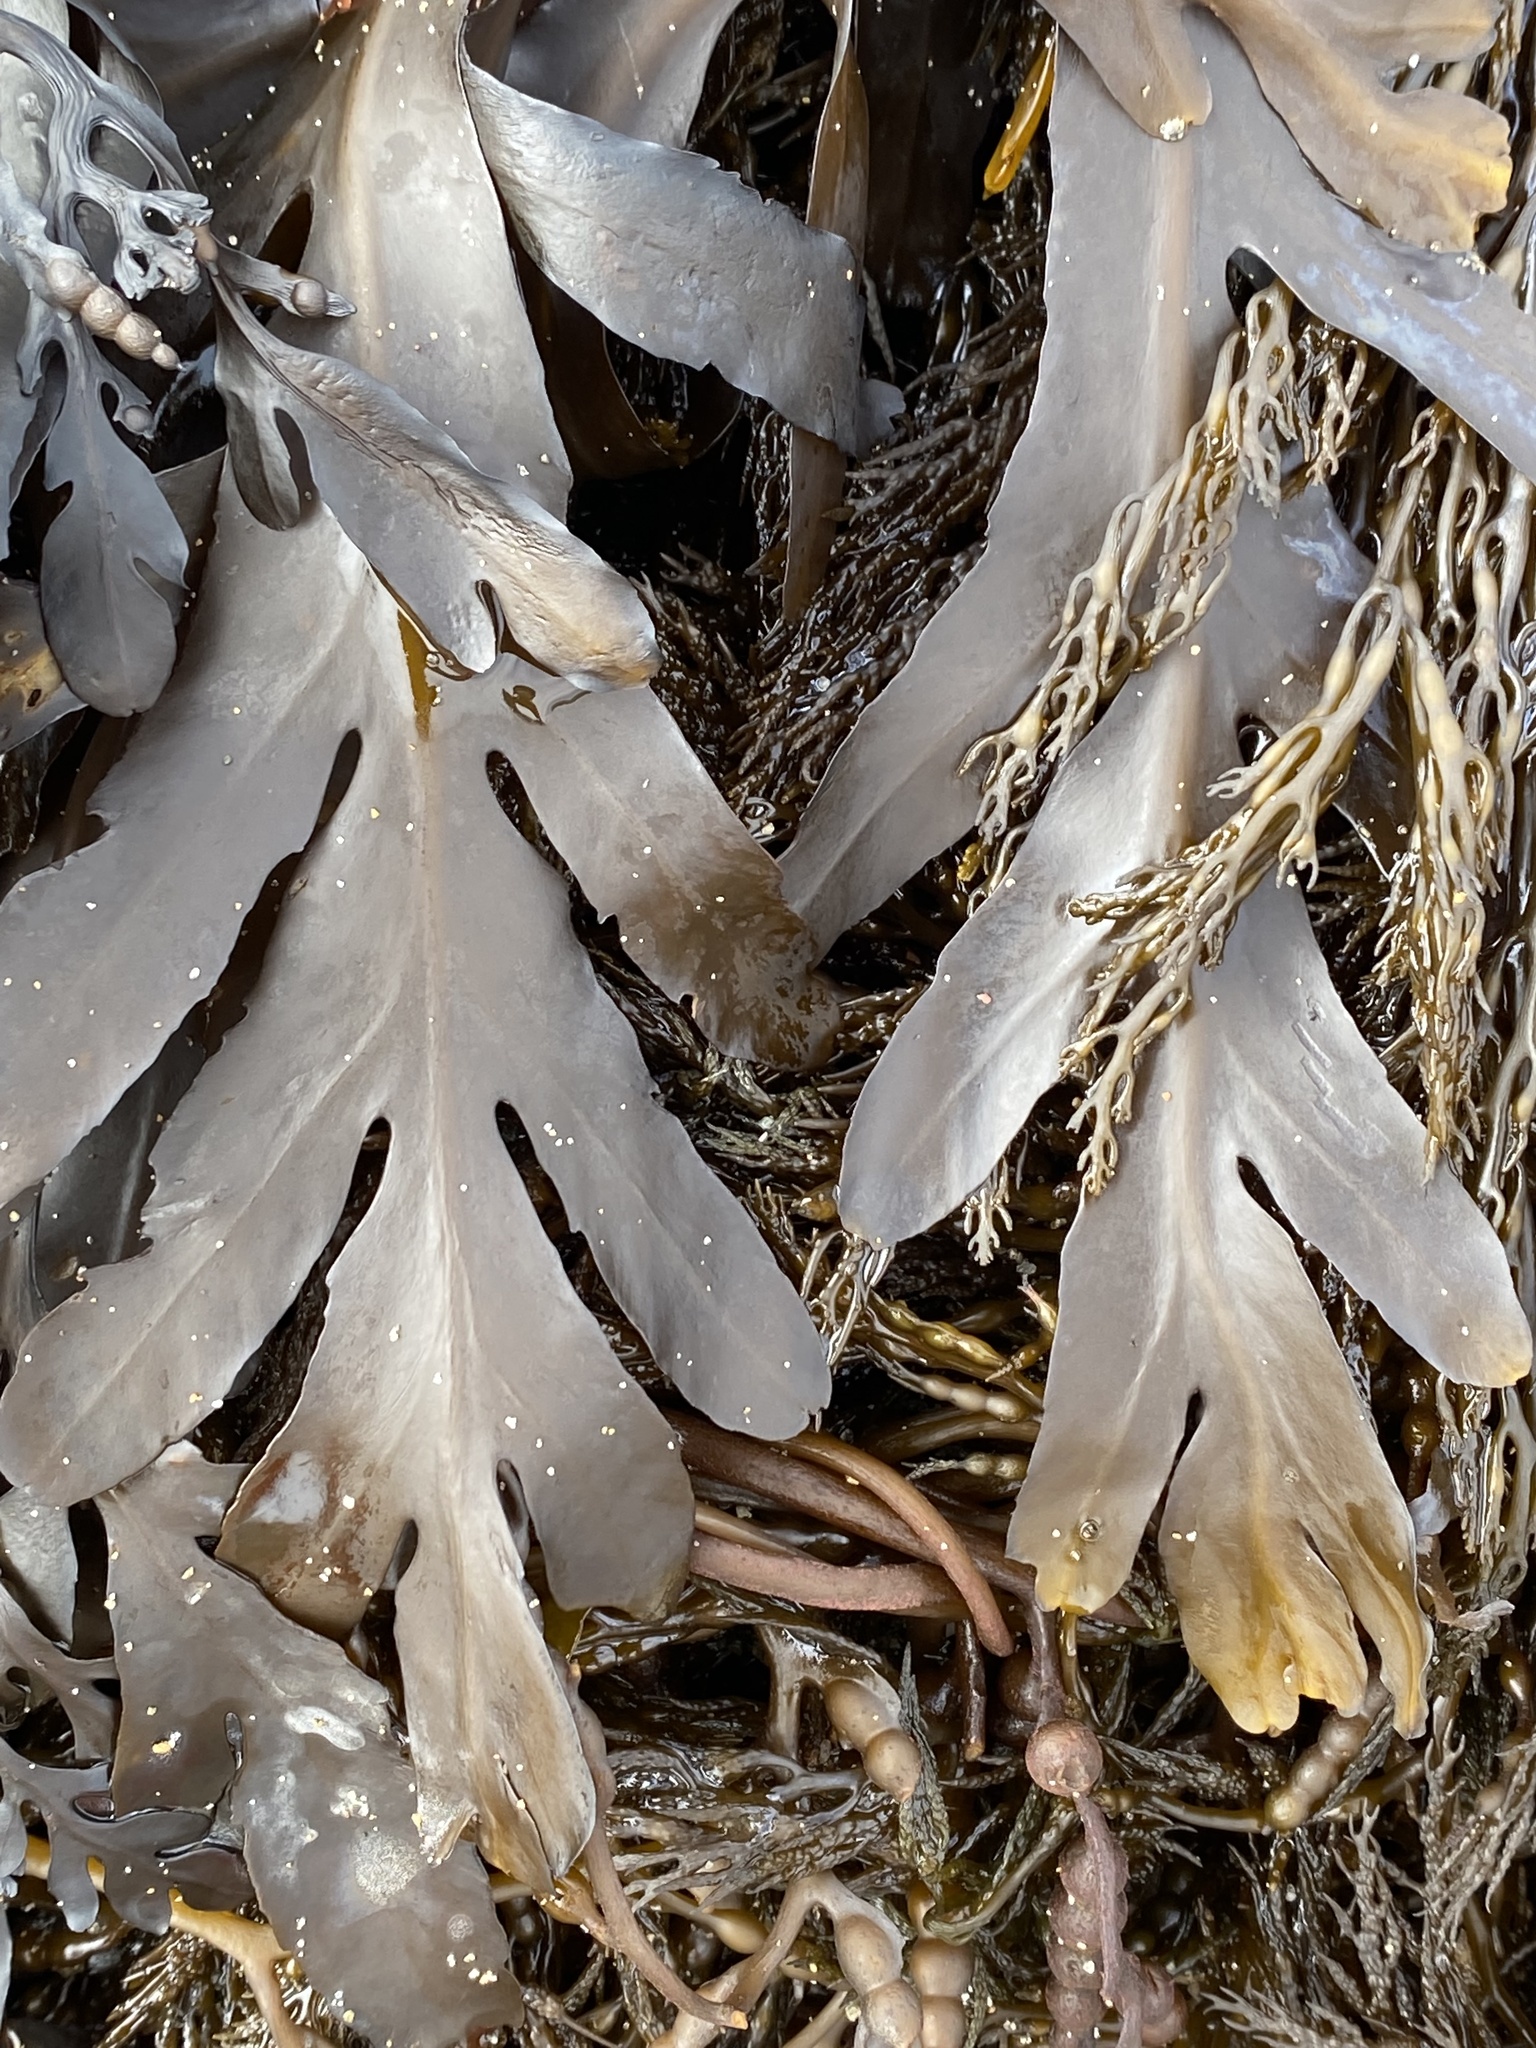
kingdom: Chromista
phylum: Ochrophyta
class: Phaeophyceae
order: Fucales
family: Sargassaceae
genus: Stephanocystis
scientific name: Stephanocystis
